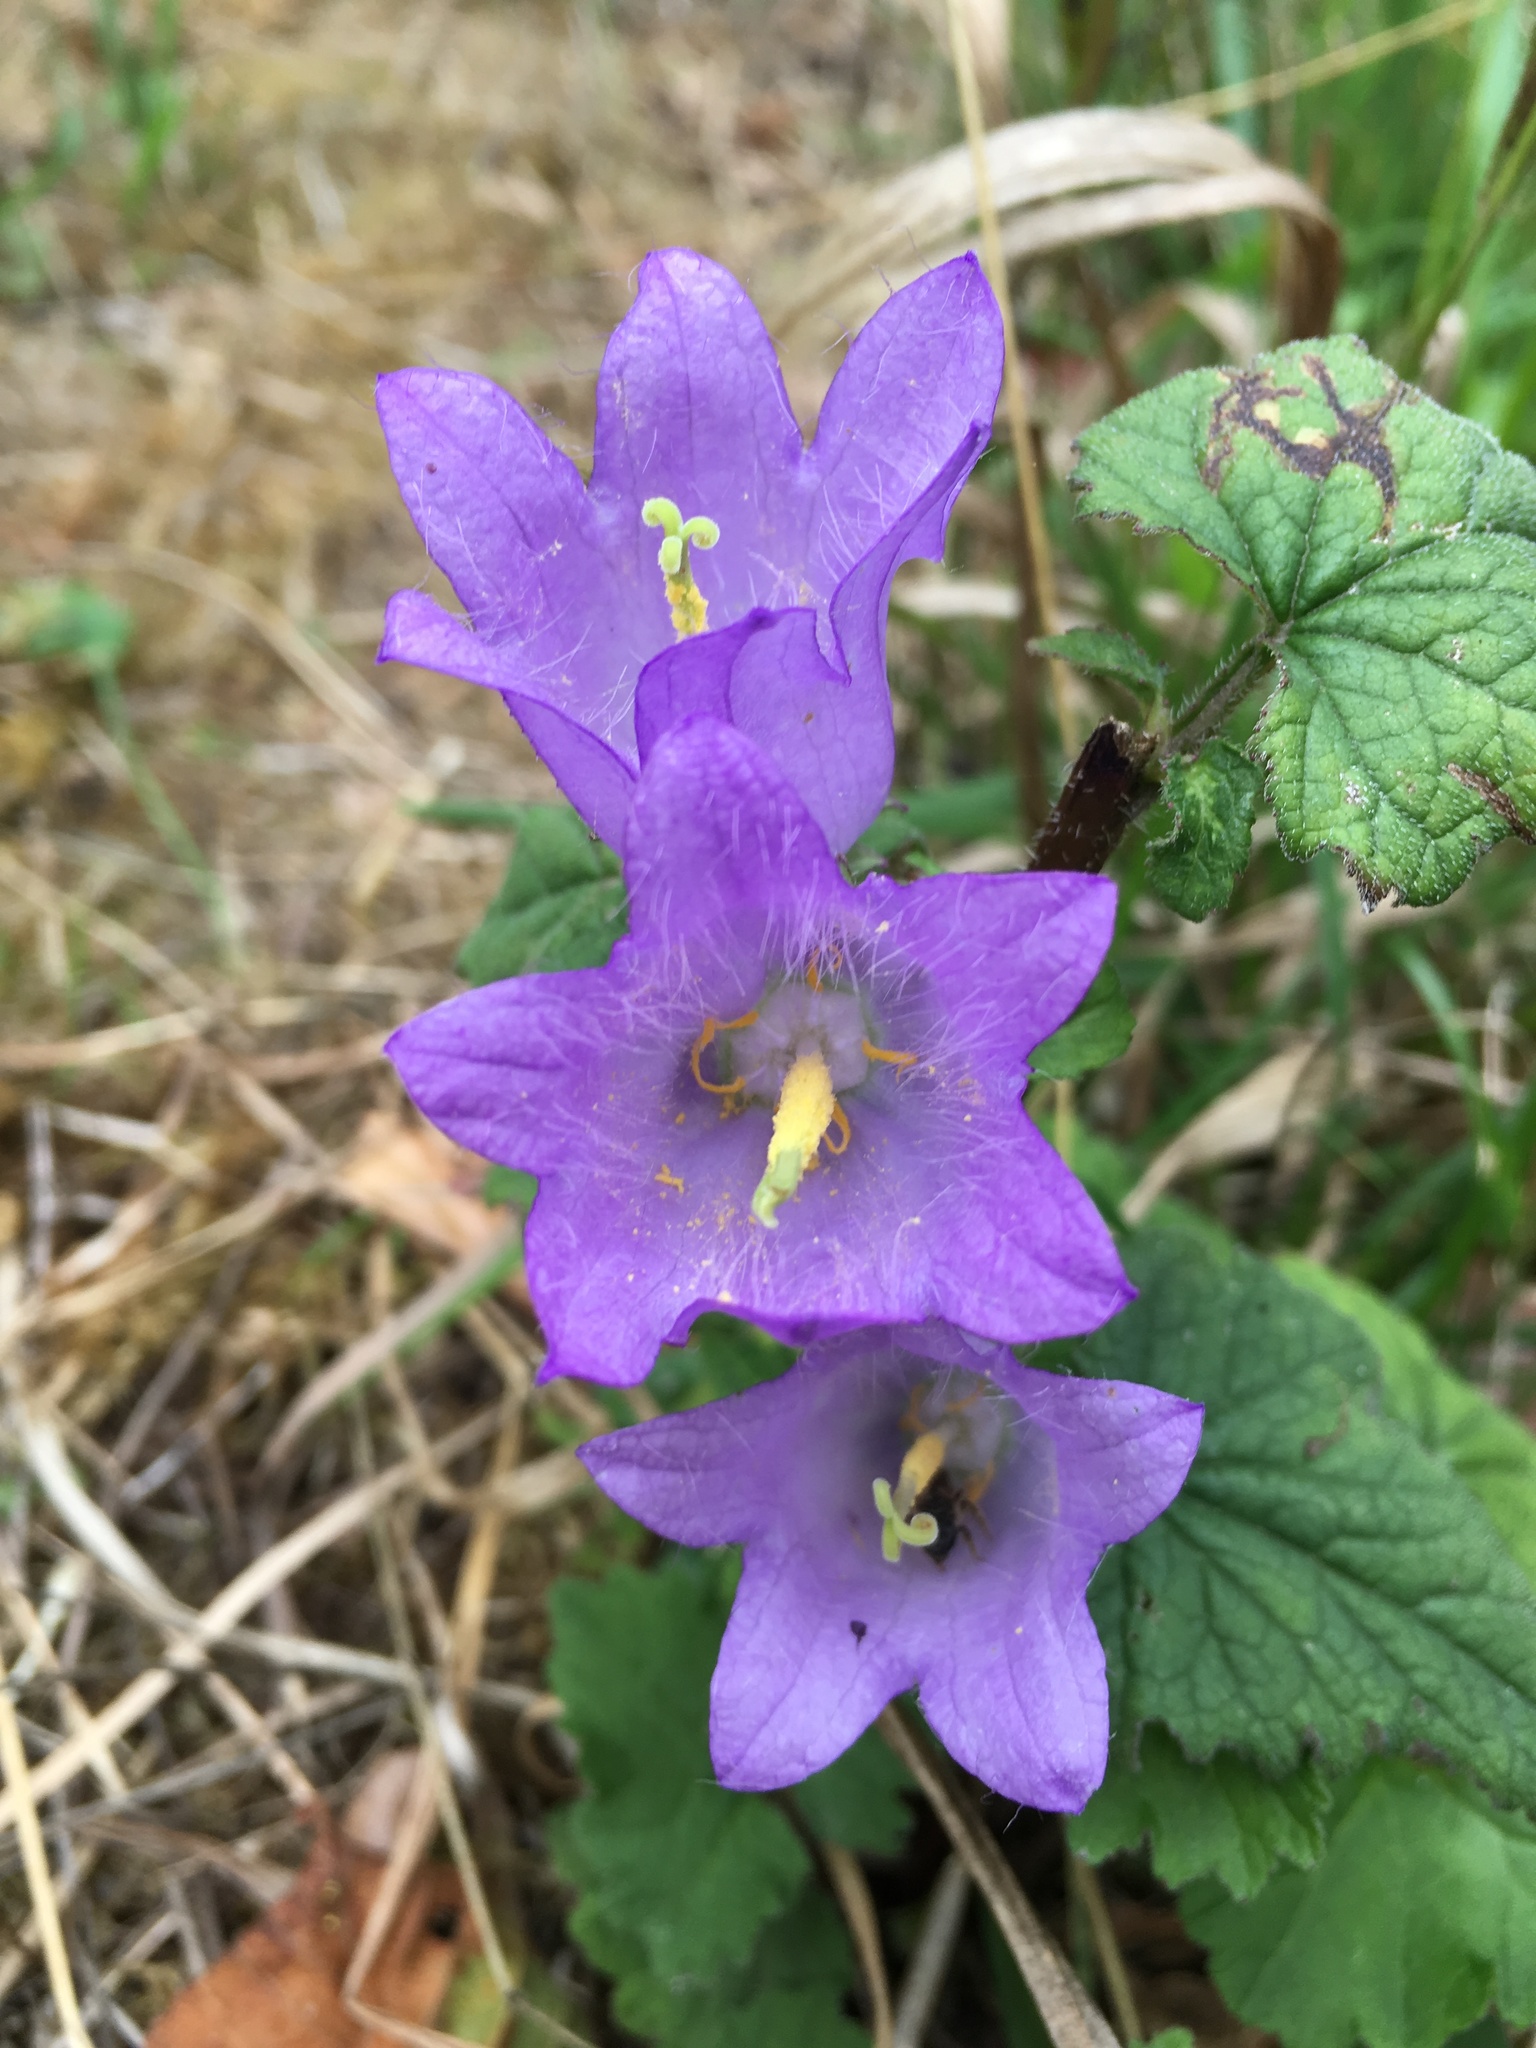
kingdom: Plantae
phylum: Tracheophyta
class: Magnoliopsida
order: Asterales
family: Campanulaceae
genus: Campanula
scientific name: Campanula trachelium
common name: Nettle-leaved bellflower
